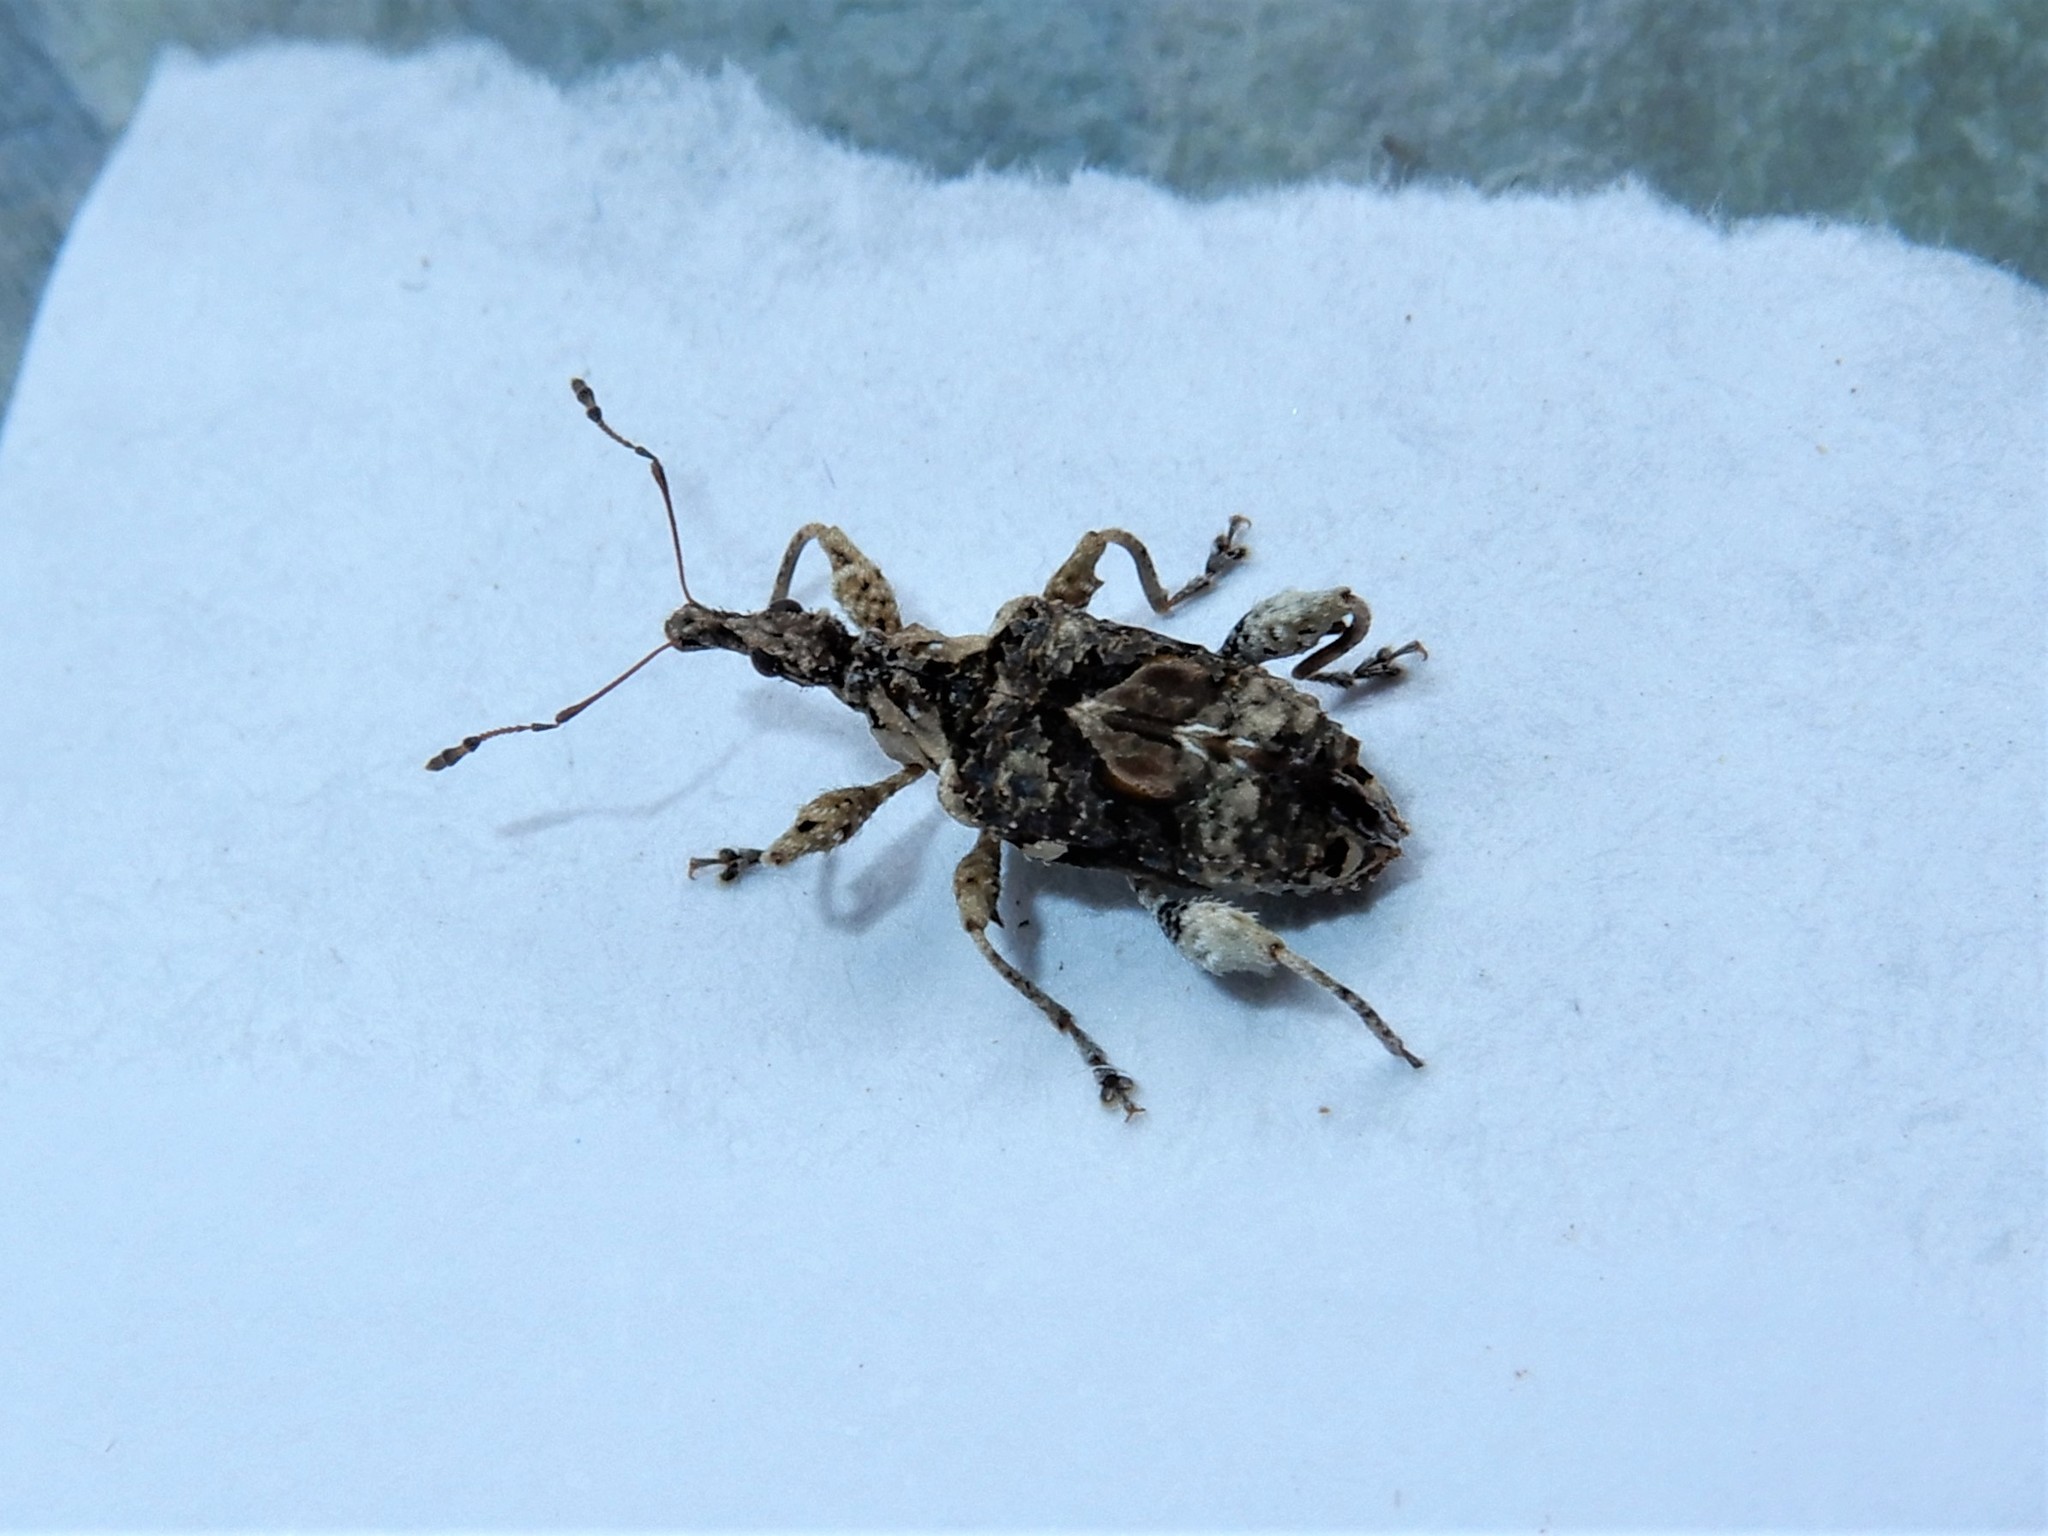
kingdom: Animalia
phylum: Arthropoda
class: Insecta
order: Coleoptera
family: Curculionidae
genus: Stephanorhynchus
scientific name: Stephanorhynchus curvipes
